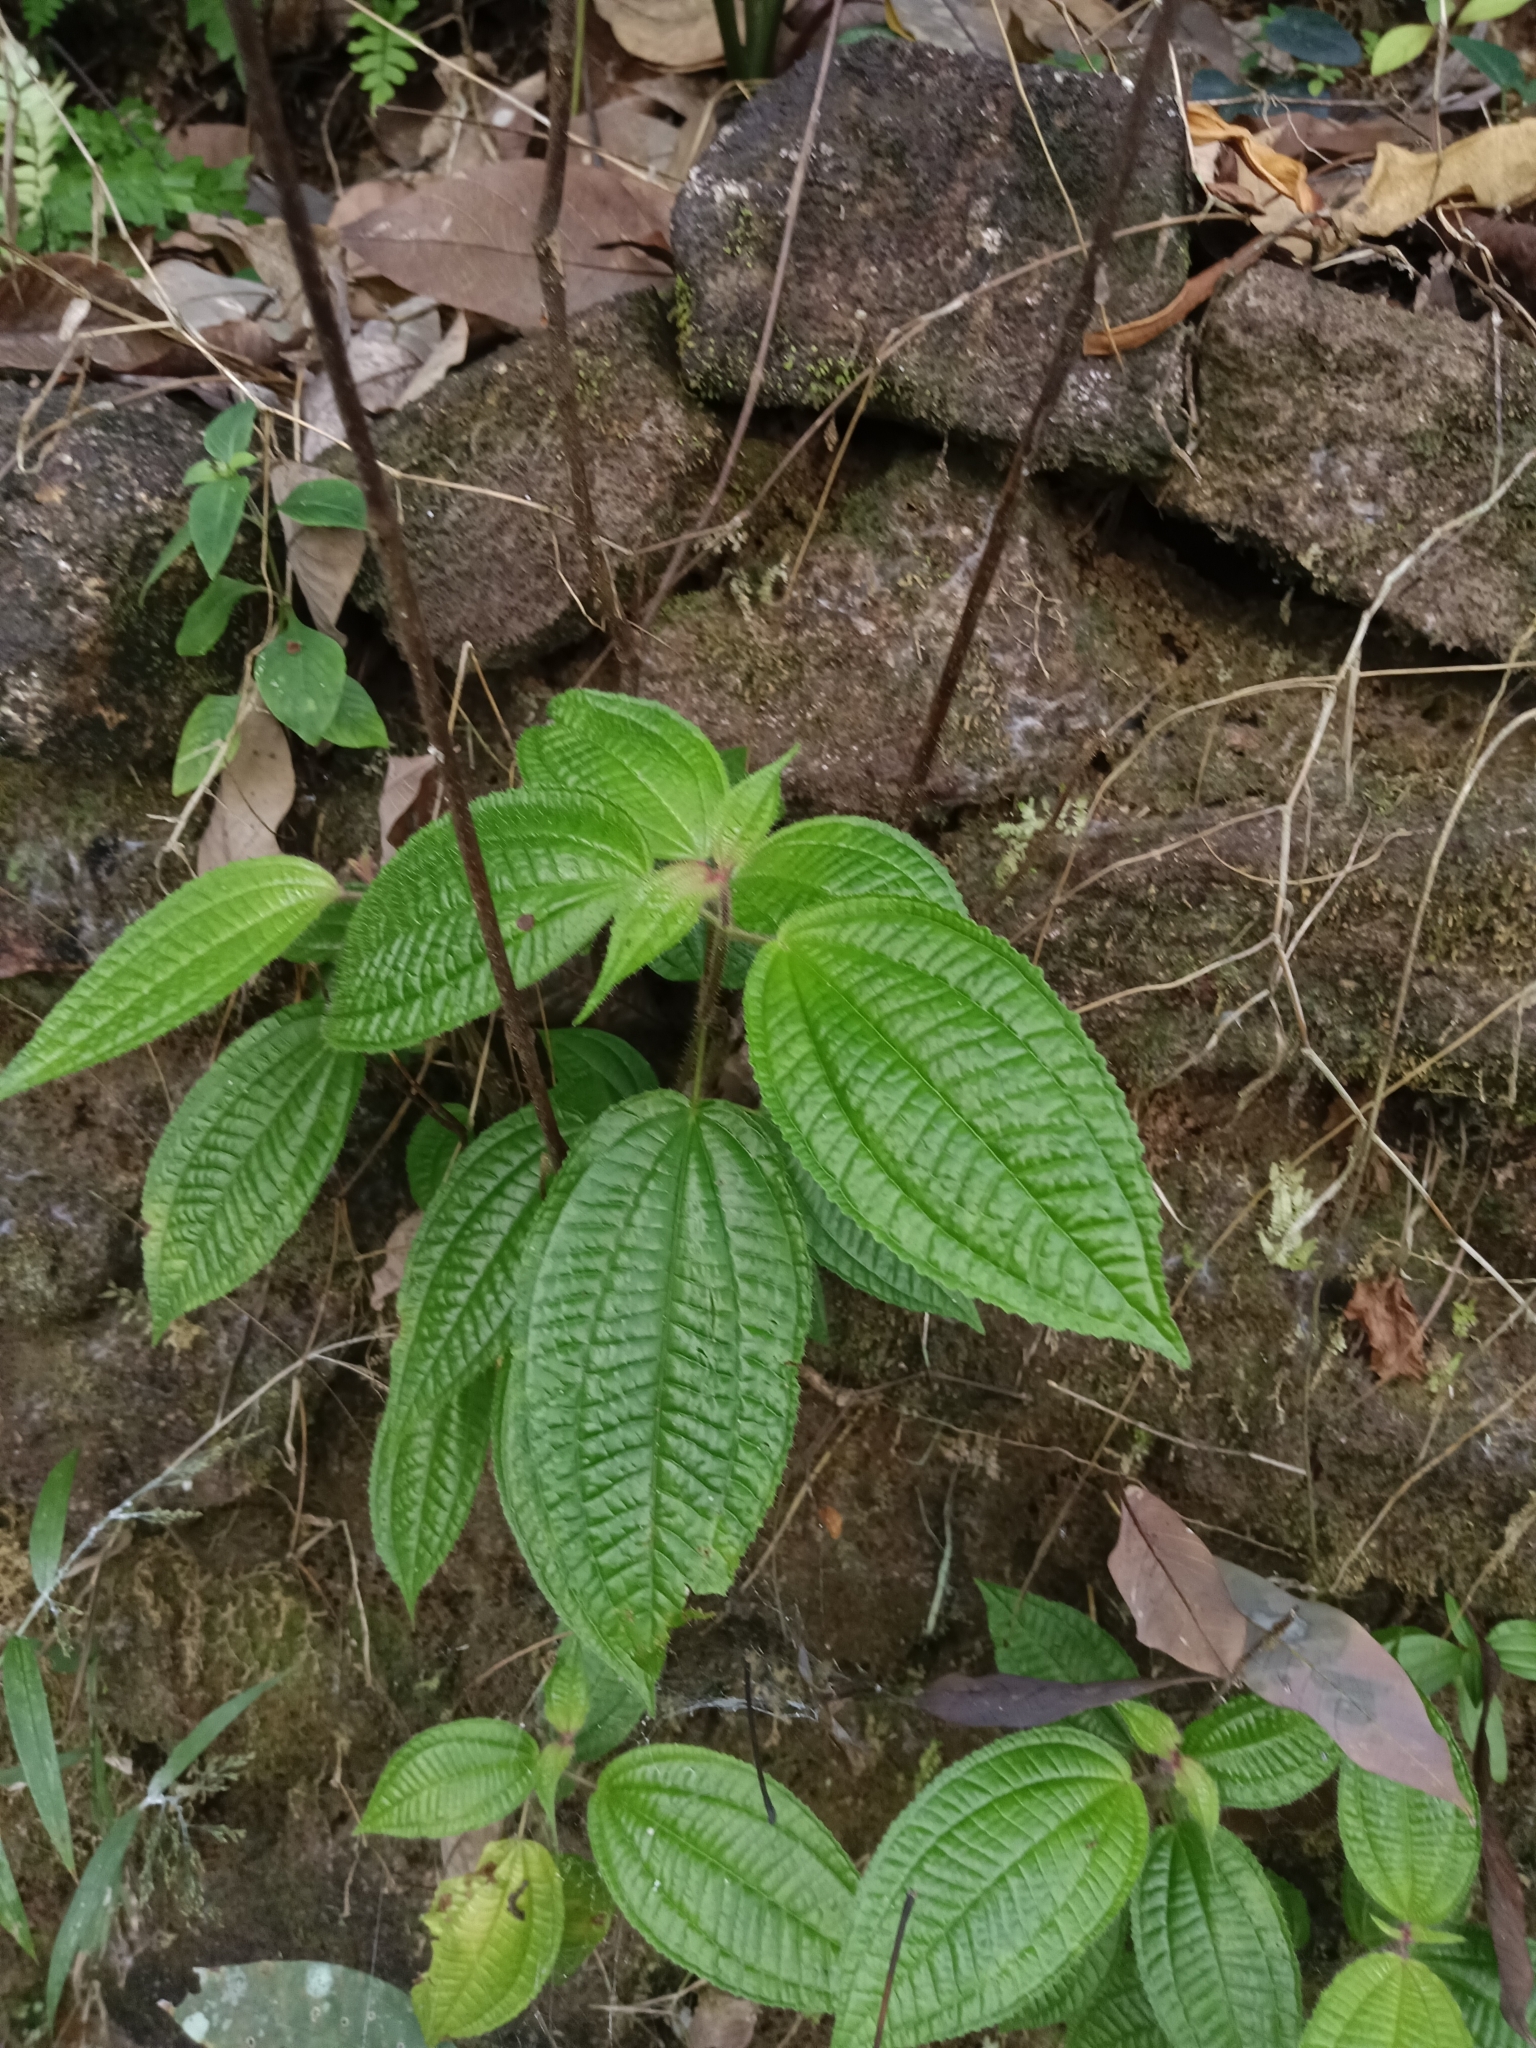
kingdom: Plantae
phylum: Tracheophyta
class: Magnoliopsida
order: Myrtales
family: Melastomataceae
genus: Miconia
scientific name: Miconia crenata
